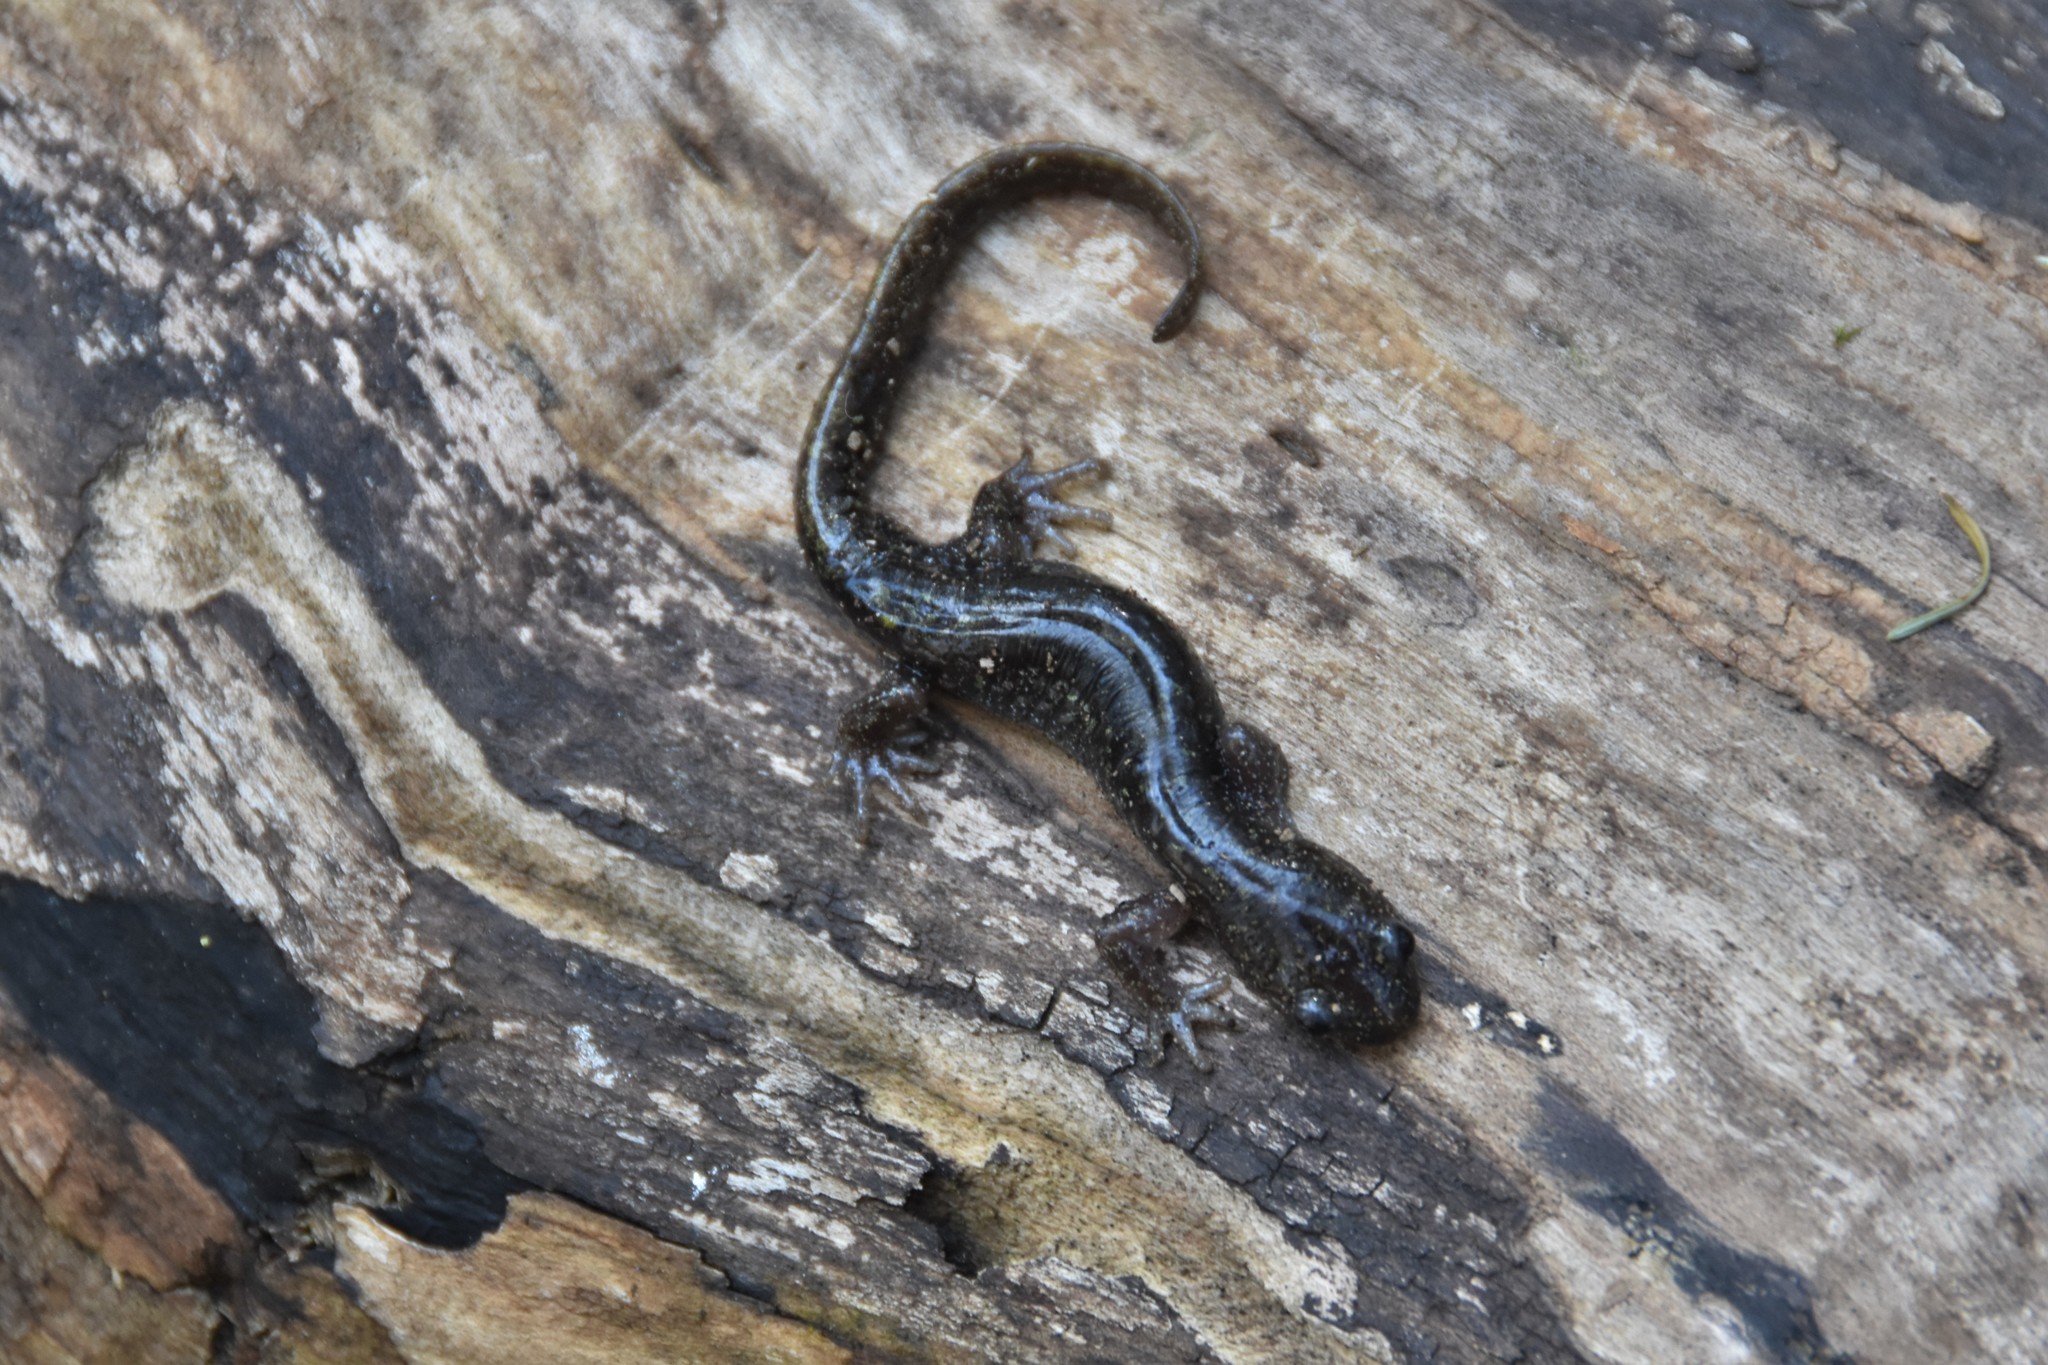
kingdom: Animalia
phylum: Chordata
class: Amphibia
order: Caudata
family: Ambystomatidae
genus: Ambystoma
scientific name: Ambystoma macrodactylum
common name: Long-toed salamander
